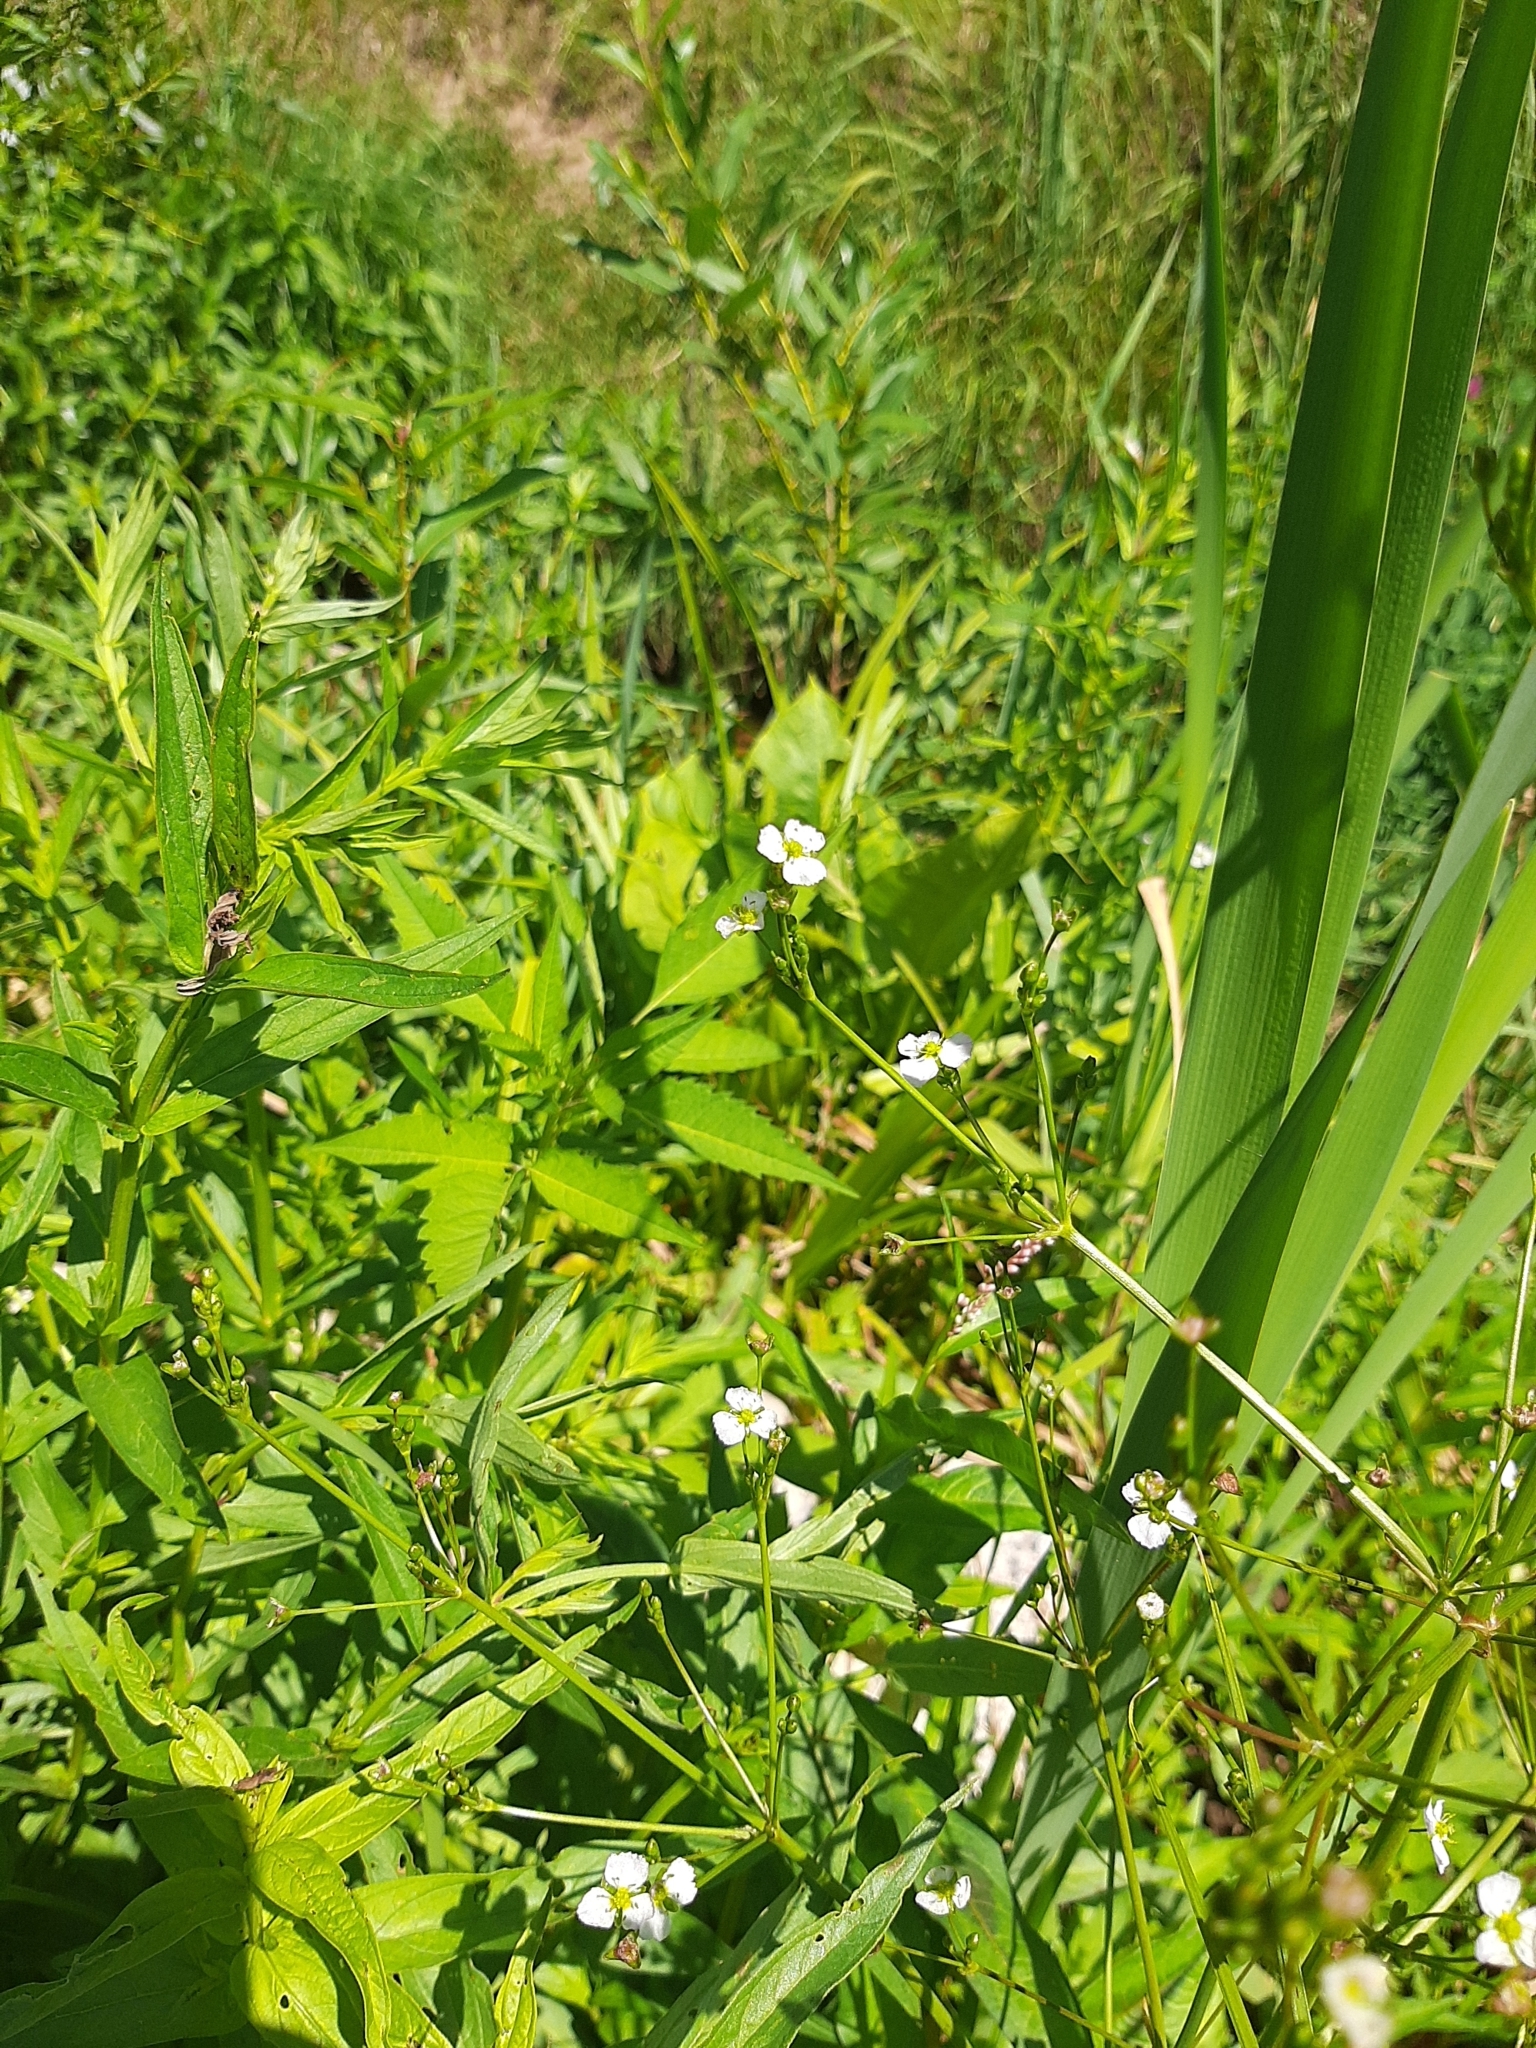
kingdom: Plantae
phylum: Tracheophyta
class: Liliopsida
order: Alismatales
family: Alismataceae
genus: Alisma
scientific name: Alisma plantago-aquatica
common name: Water-plantain
